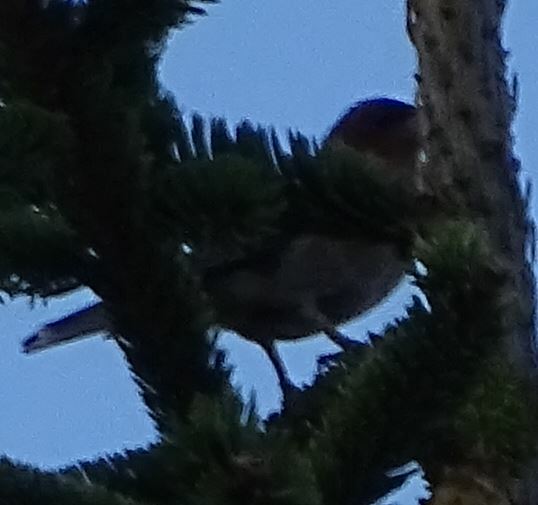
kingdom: Animalia
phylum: Chordata
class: Aves
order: Passeriformes
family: Fringillidae
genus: Fringilla
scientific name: Fringilla coelebs
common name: Common chaffinch
